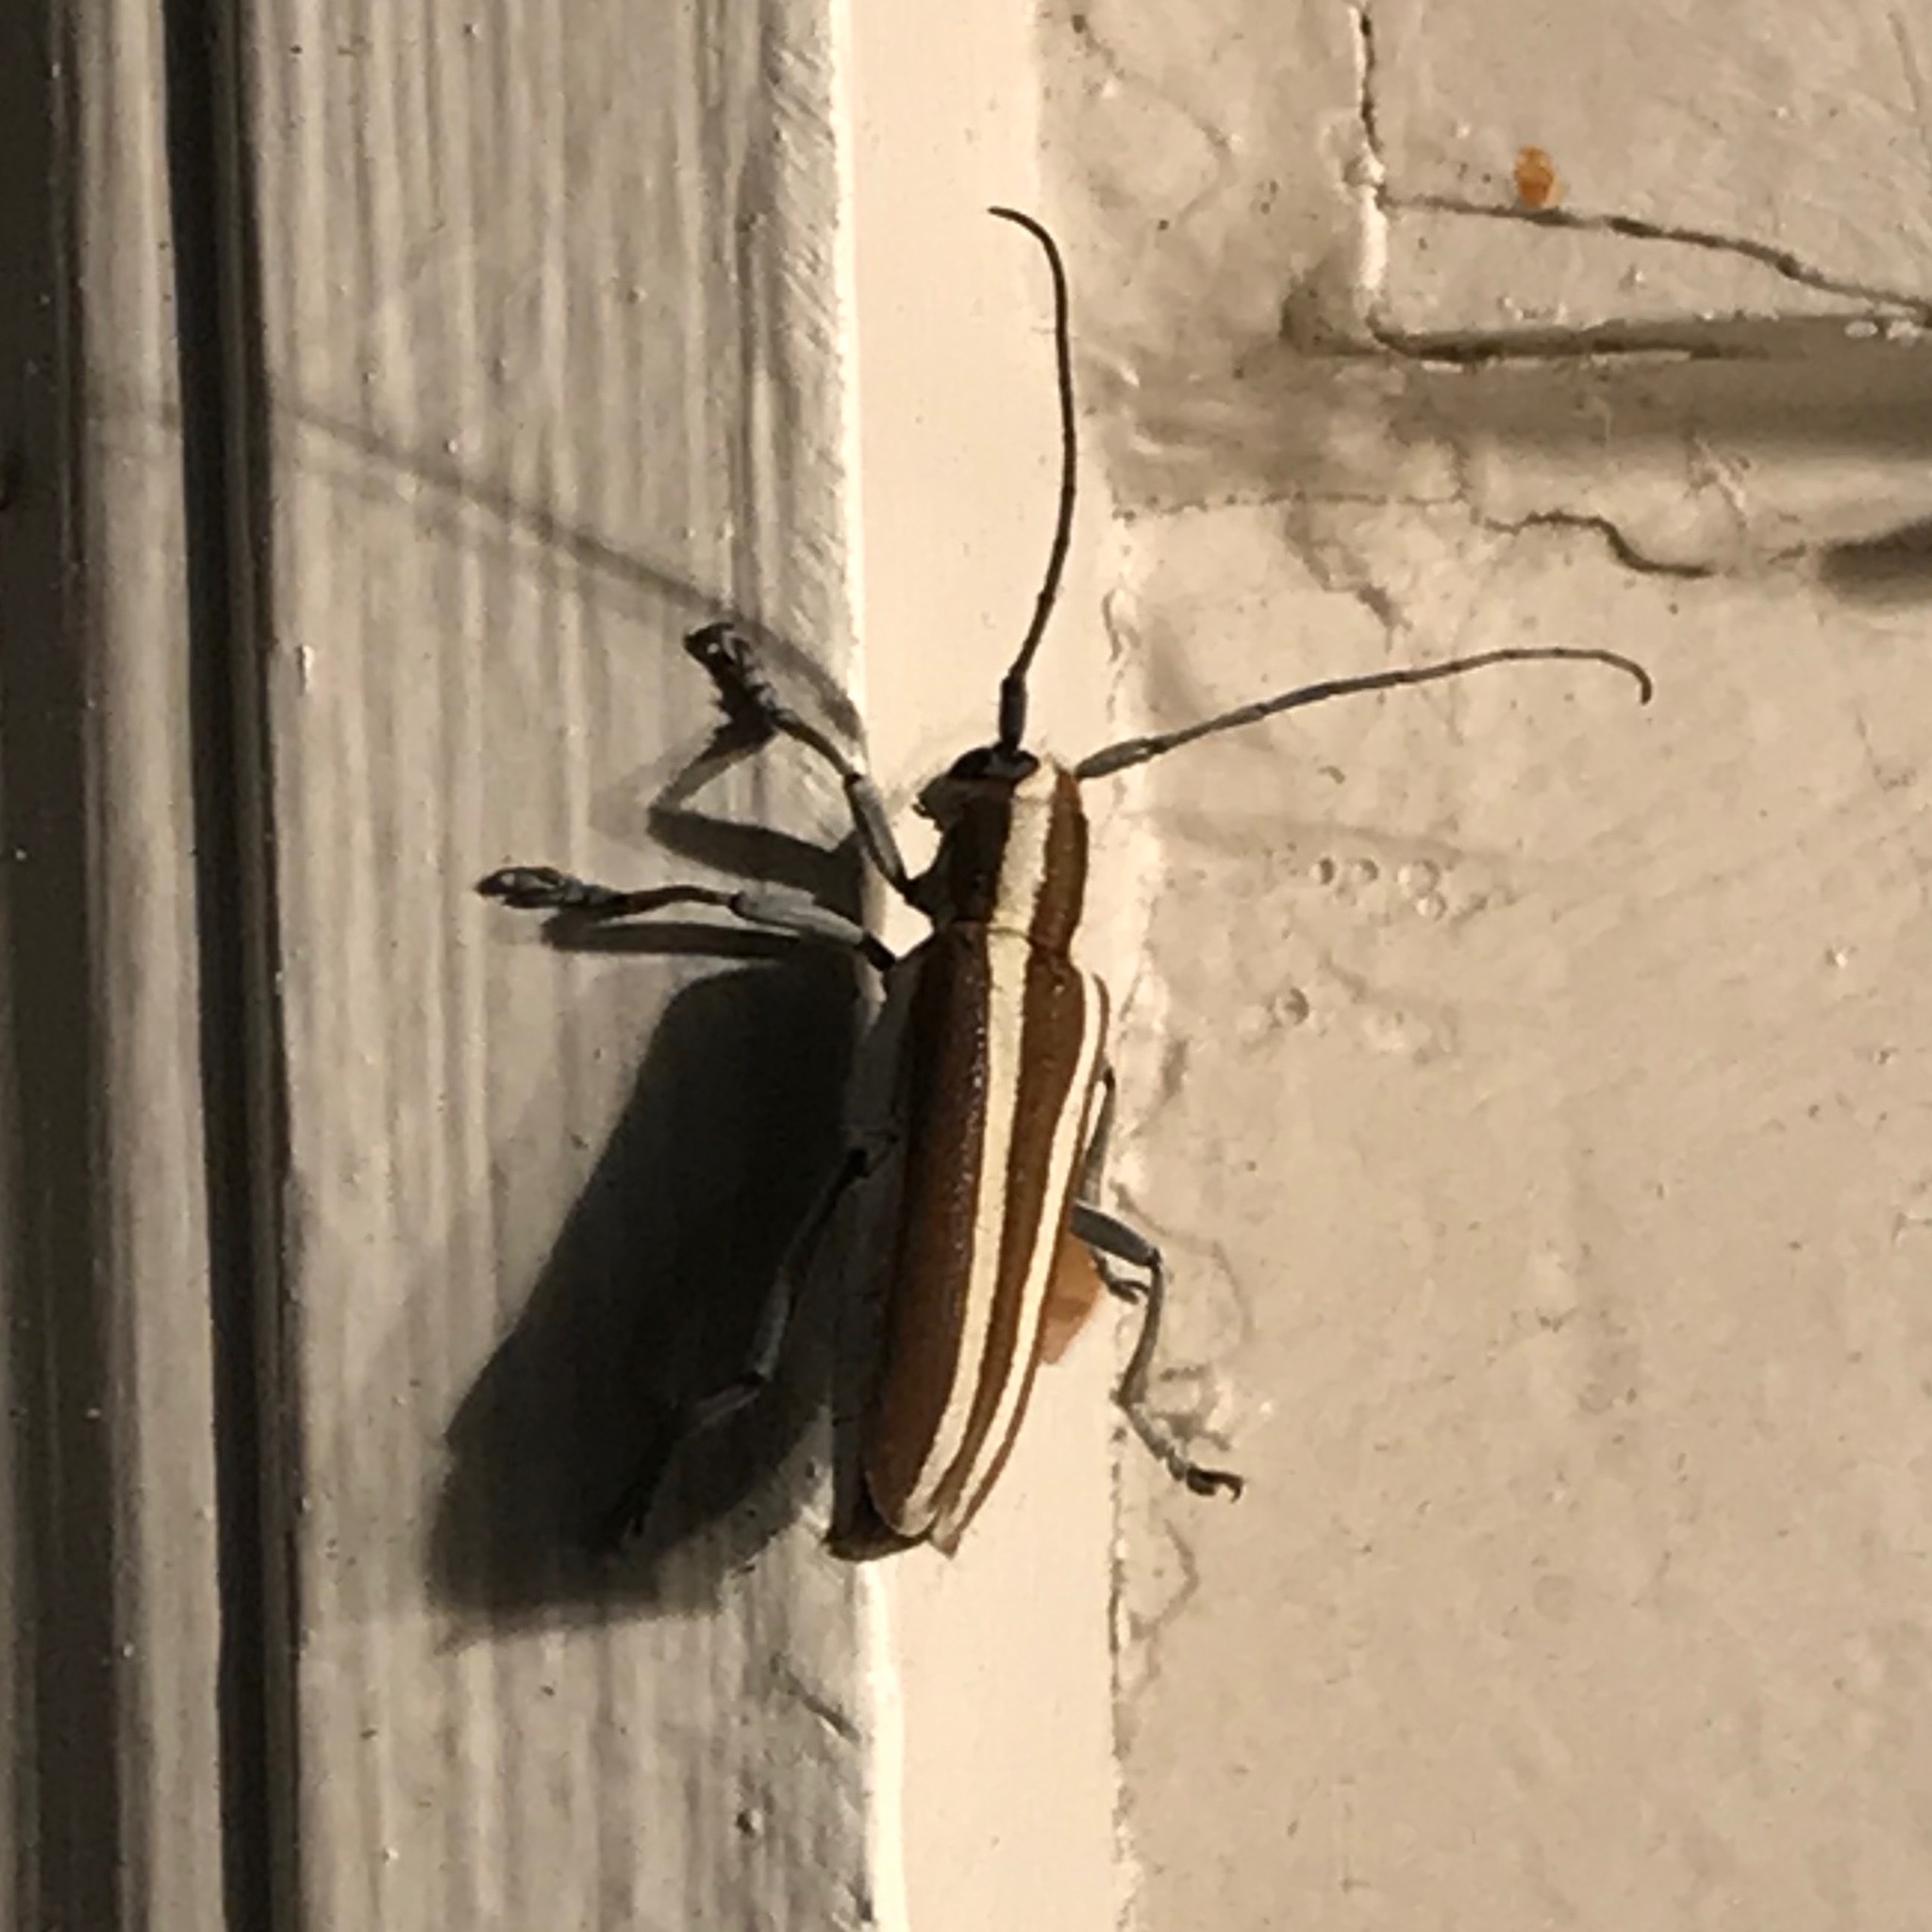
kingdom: Animalia
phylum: Arthropoda
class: Insecta
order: Coleoptera
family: Cerambycidae
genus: Saperda
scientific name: Saperda candida
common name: Round-headed borer
